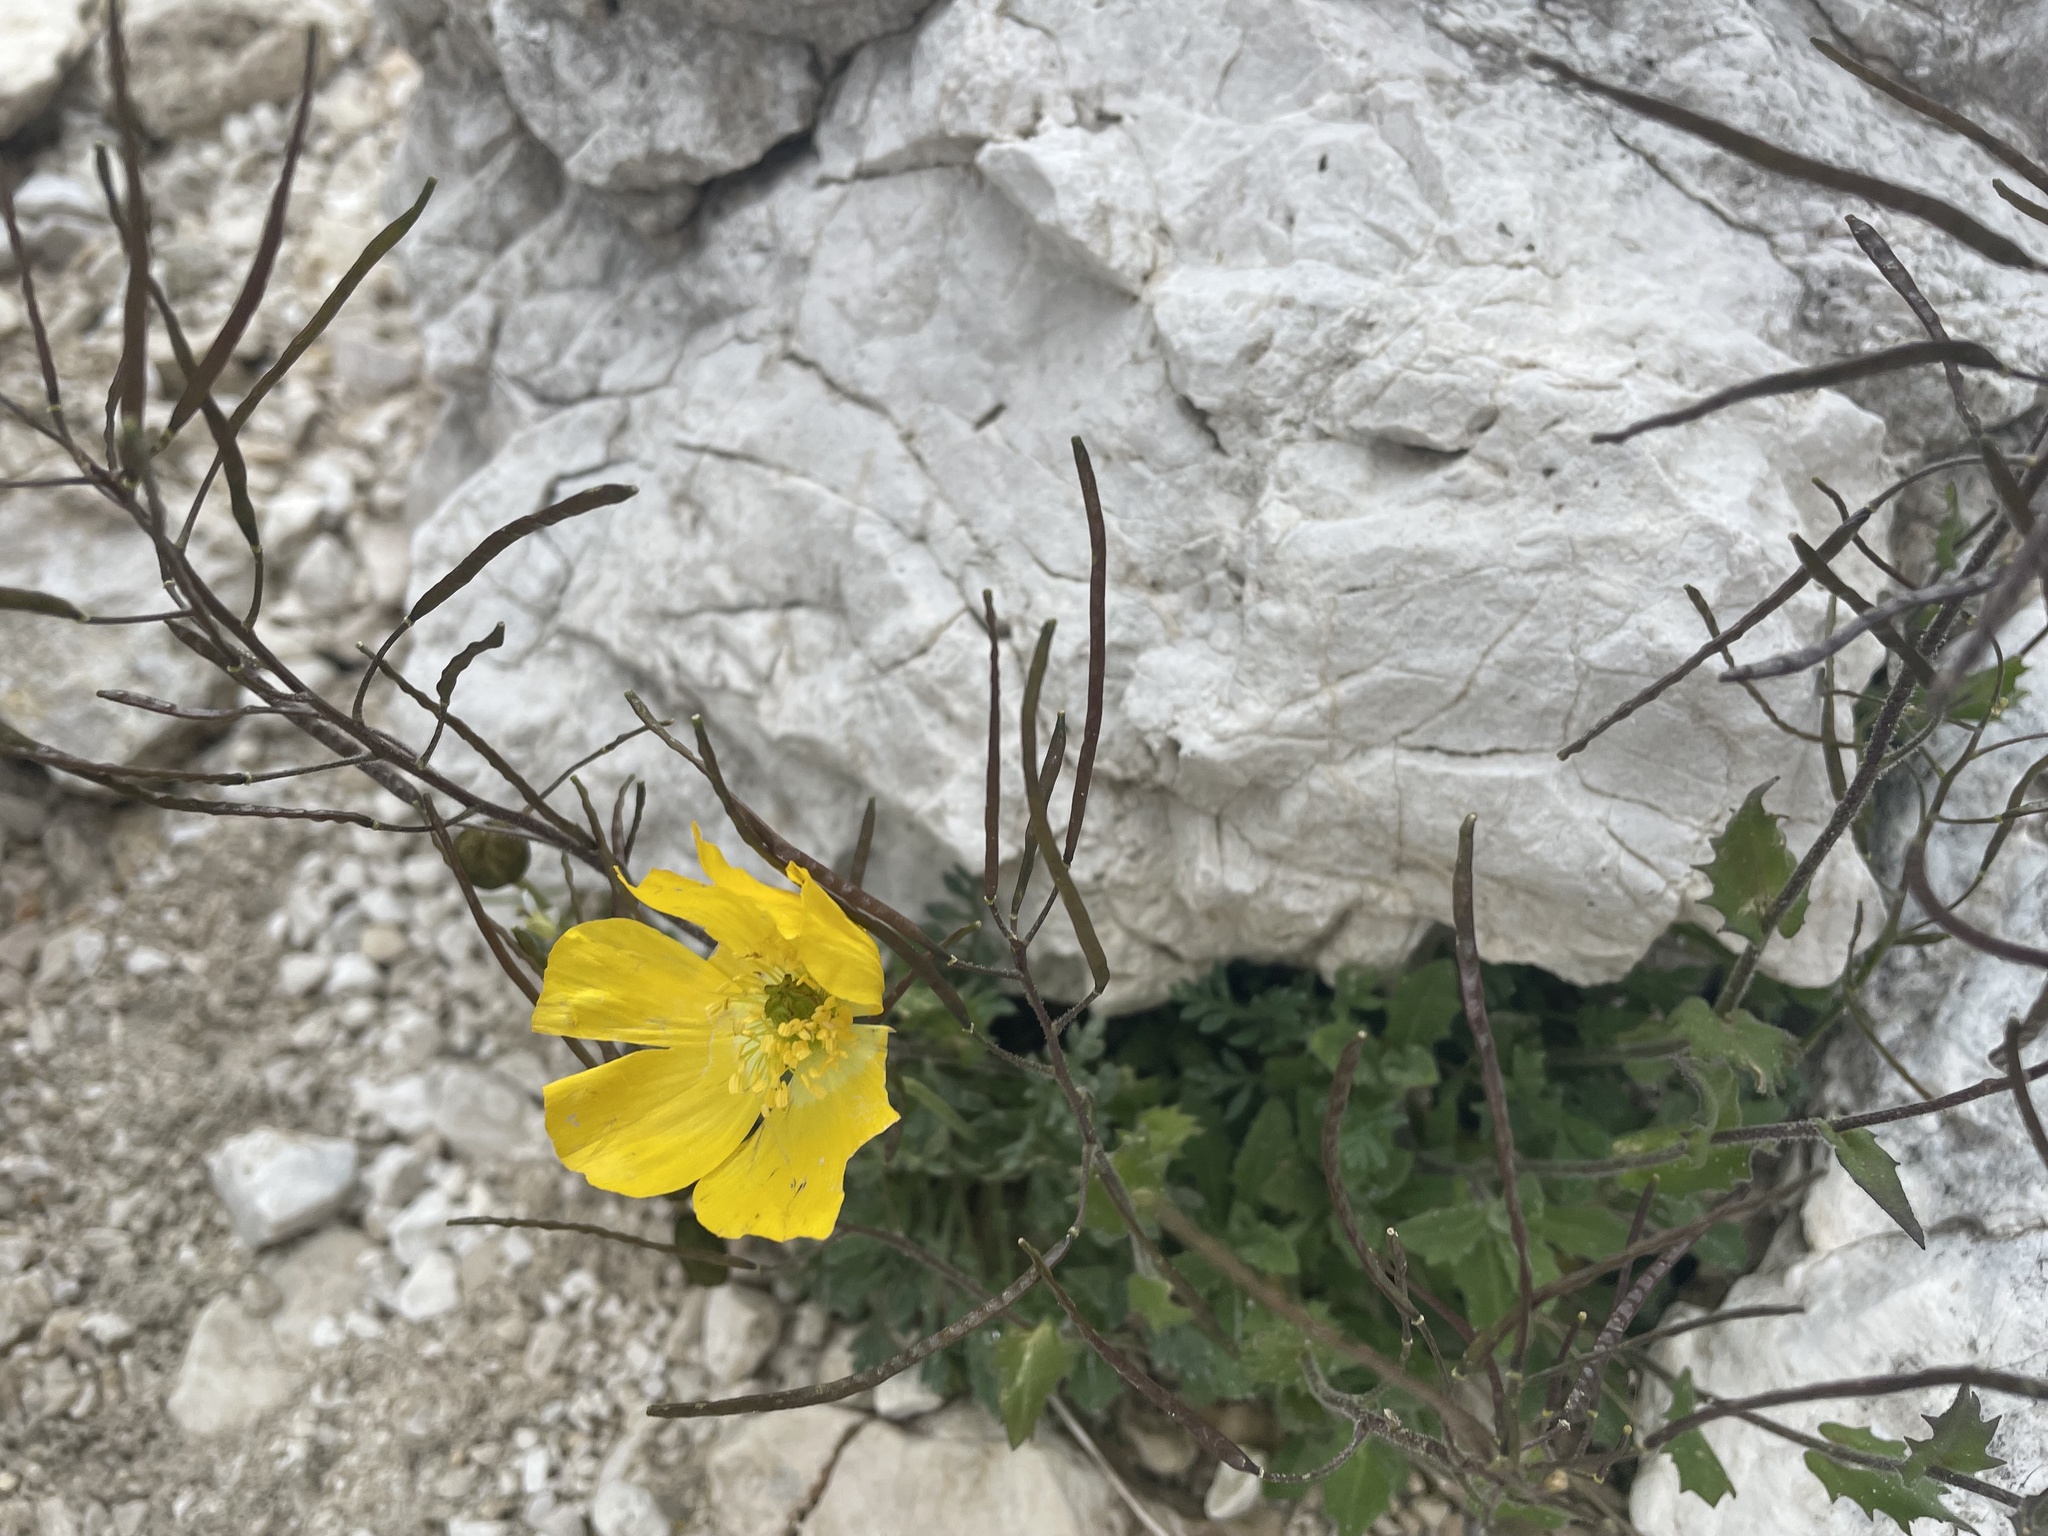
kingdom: Plantae
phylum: Tracheophyta
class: Magnoliopsida
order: Ranunculales
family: Papaveraceae
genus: Papaver
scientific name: Papaver alpinum
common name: Austrian poppy
